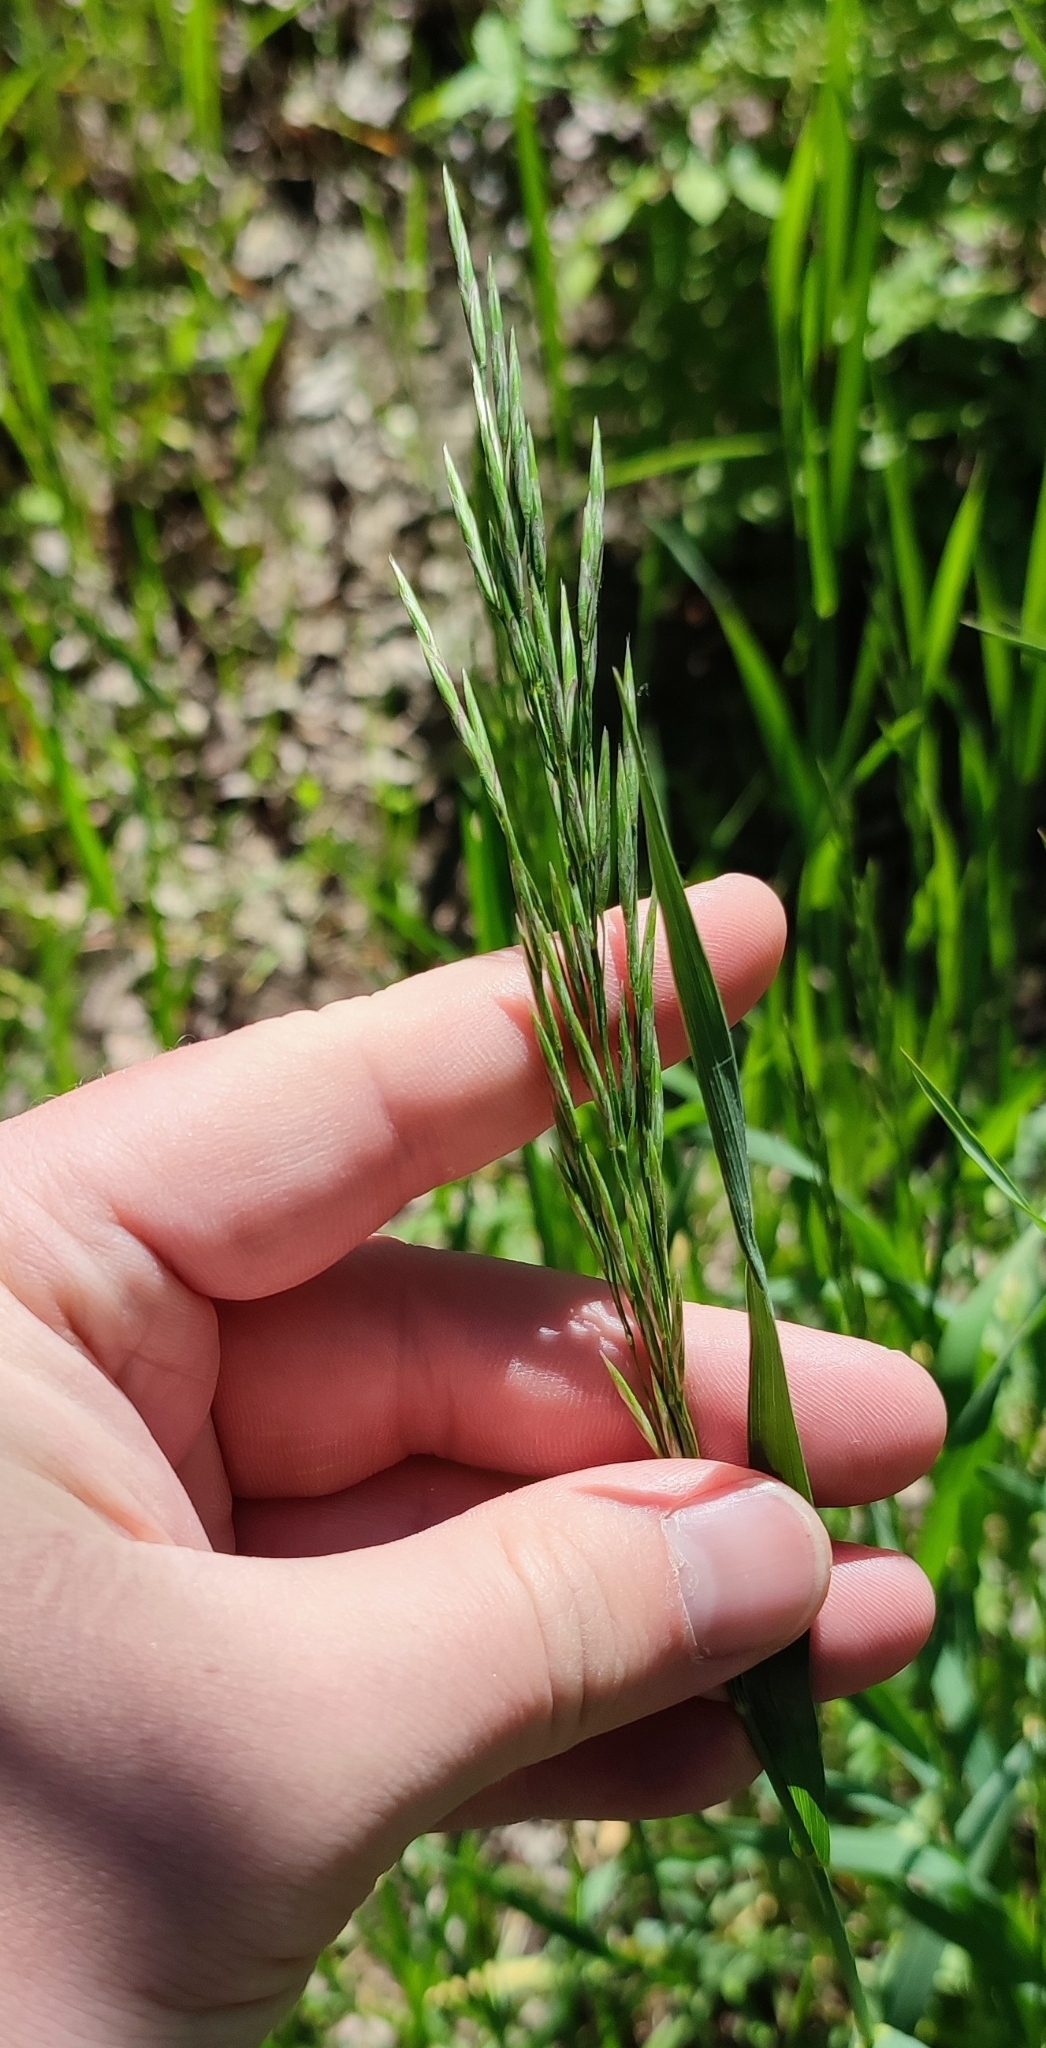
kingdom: Plantae
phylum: Tracheophyta
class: Liliopsida
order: Poales
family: Poaceae
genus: Bromus
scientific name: Bromus inermis
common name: Smooth brome
